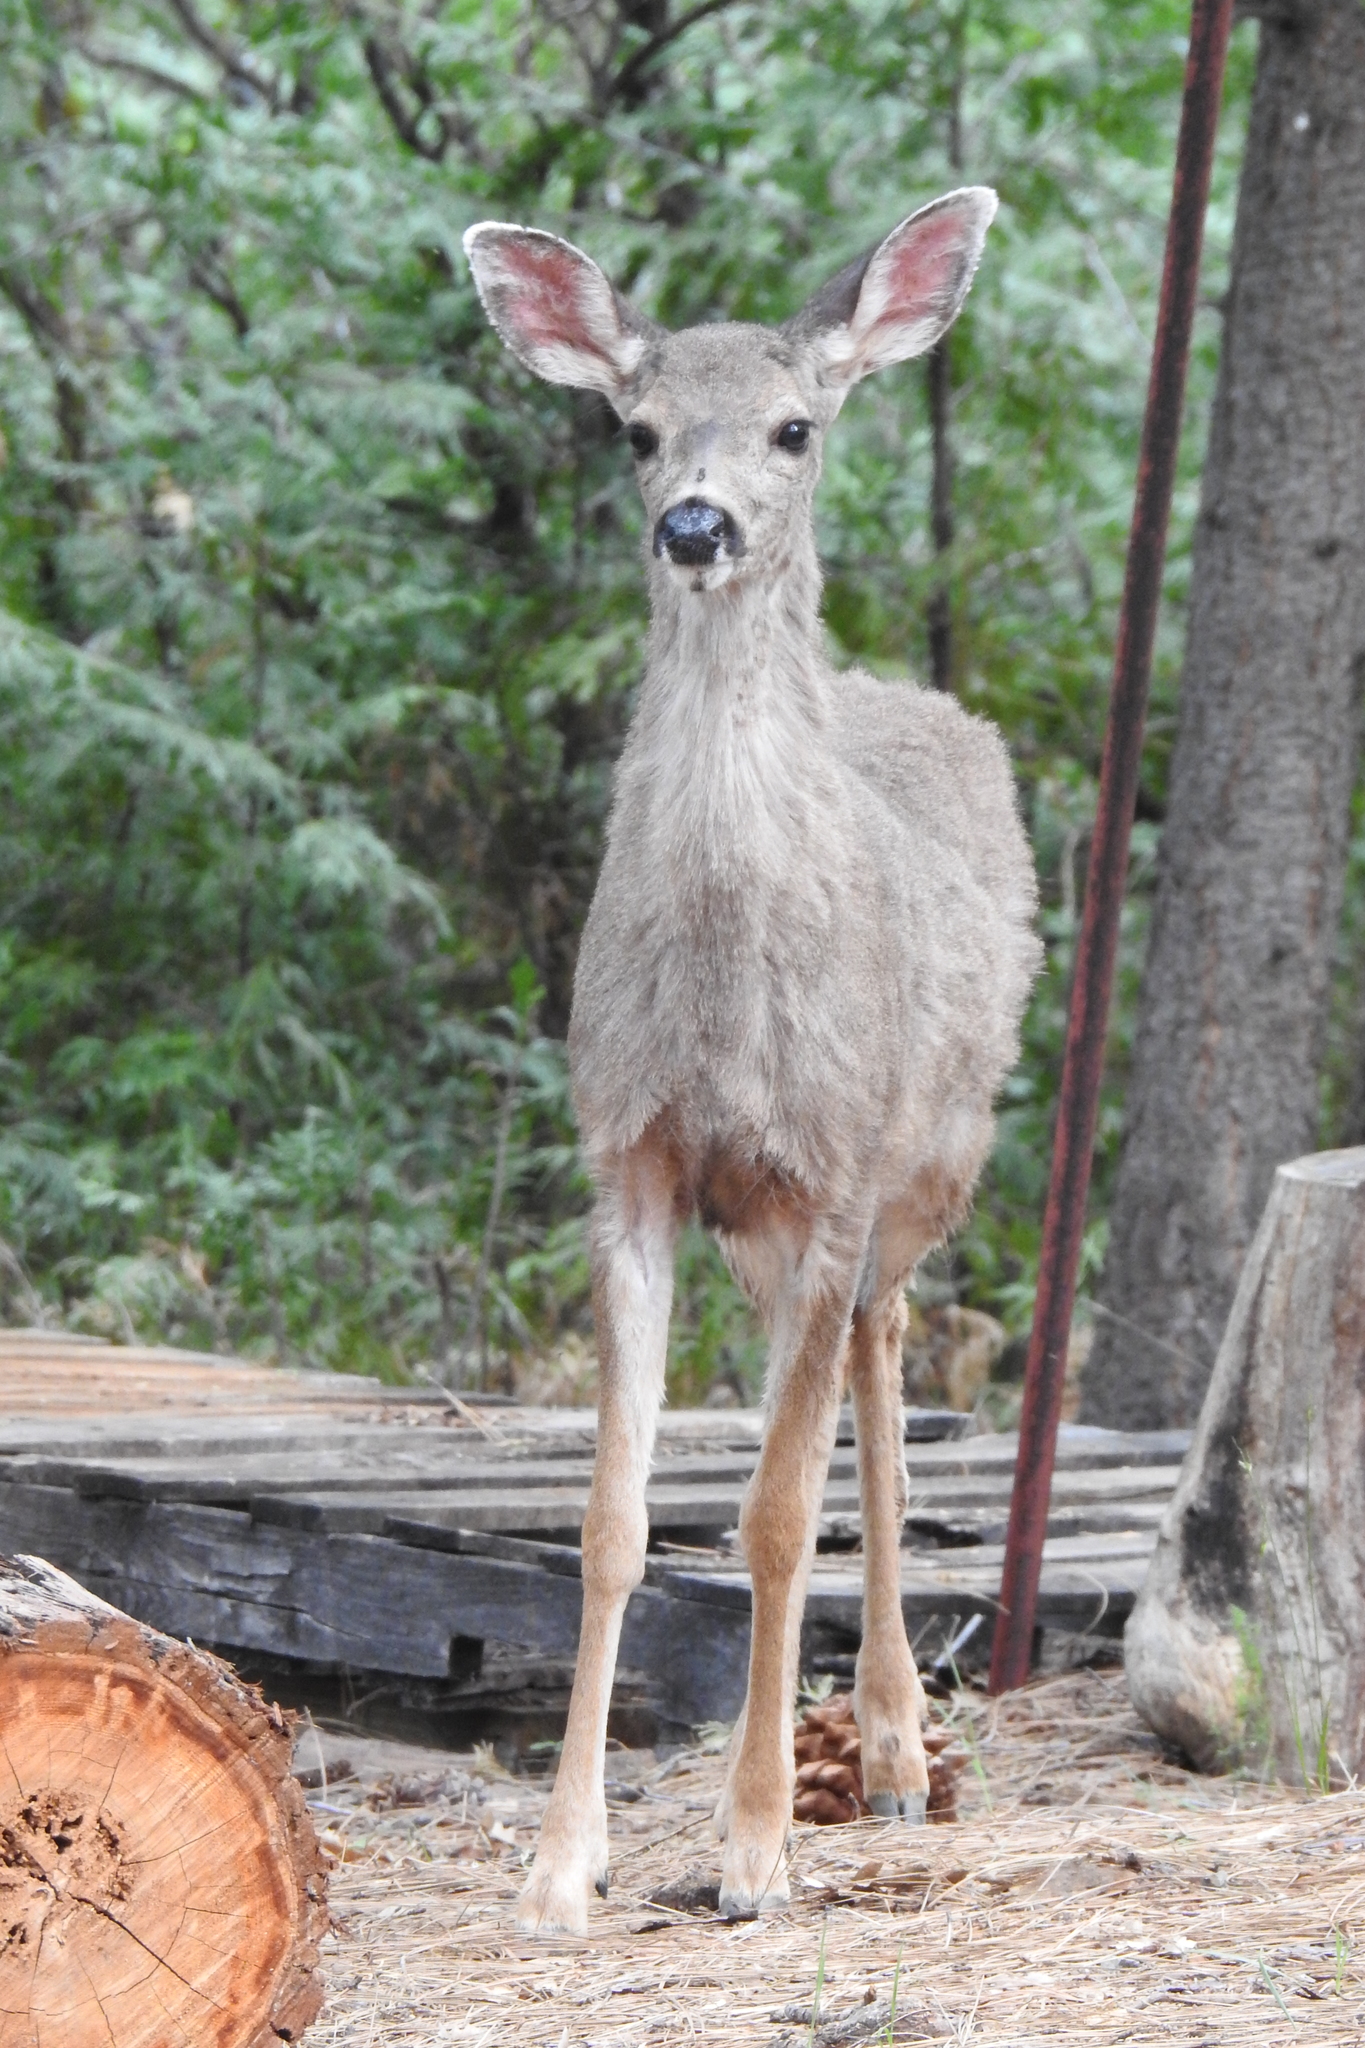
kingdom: Animalia
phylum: Chordata
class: Mammalia
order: Artiodactyla
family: Cervidae
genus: Odocoileus
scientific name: Odocoileus hemionus
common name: Mule deer
